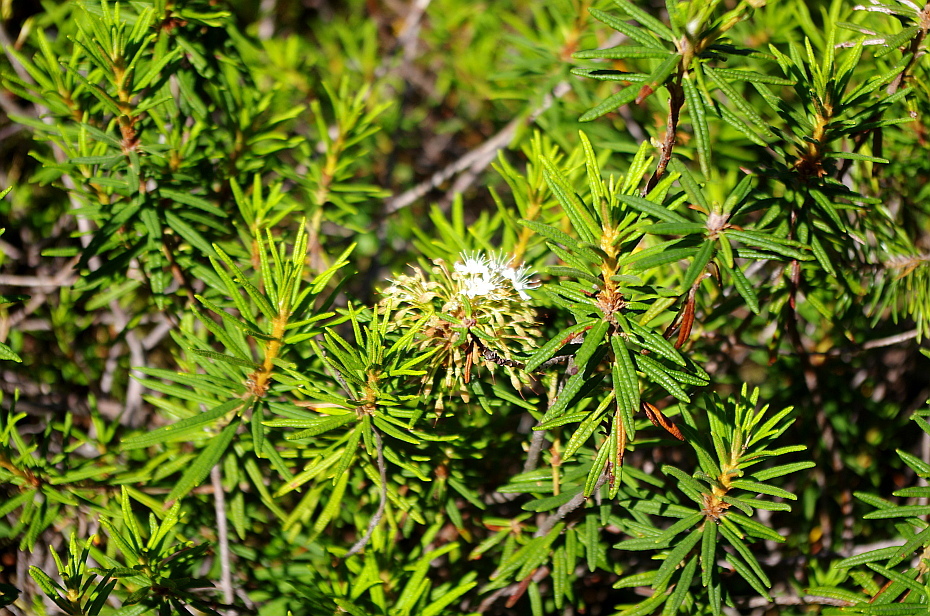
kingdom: Plantae
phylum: Tracheophyta
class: Magnoliopsida
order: Ericales
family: Ericaceae
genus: Rhododendron
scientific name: Rhododendron tomentosum
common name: Marsh labrador tea
